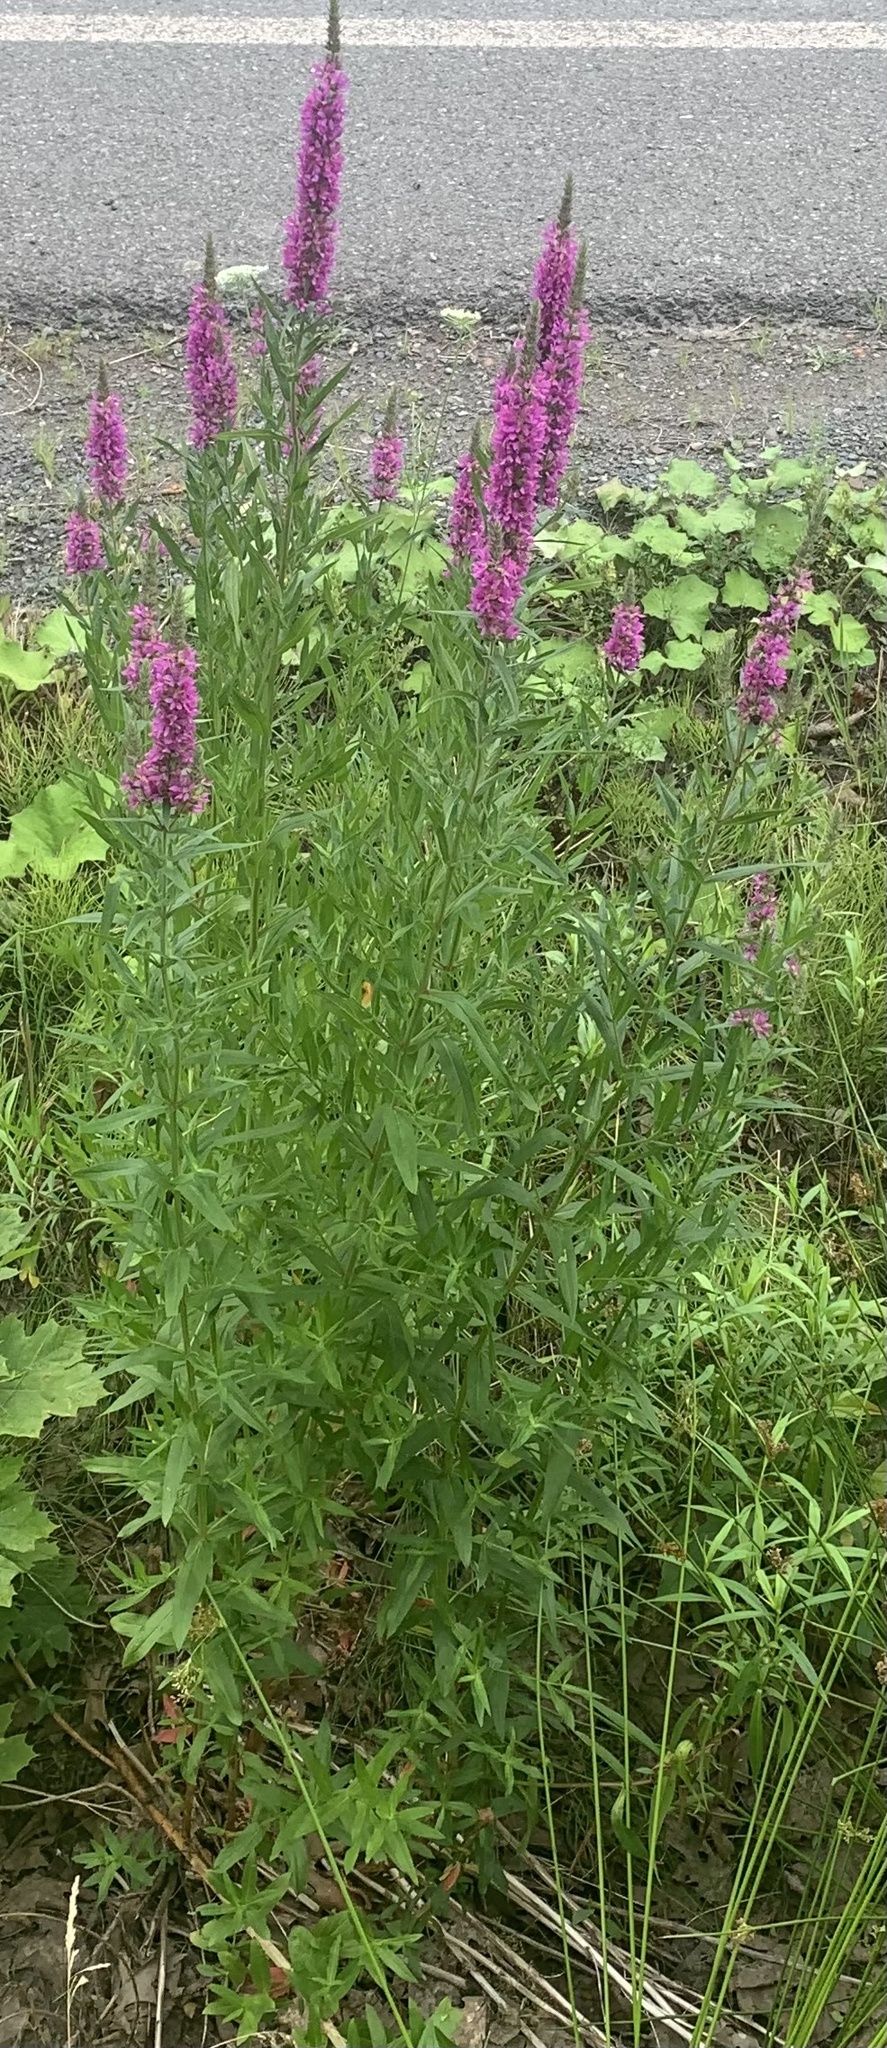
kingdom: Plantae
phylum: Tracheophyta
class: Magnoliopsida
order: Myrtales
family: Lythraceae
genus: Lythrum
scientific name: Lythrum salicaria
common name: Purple loosestrife
